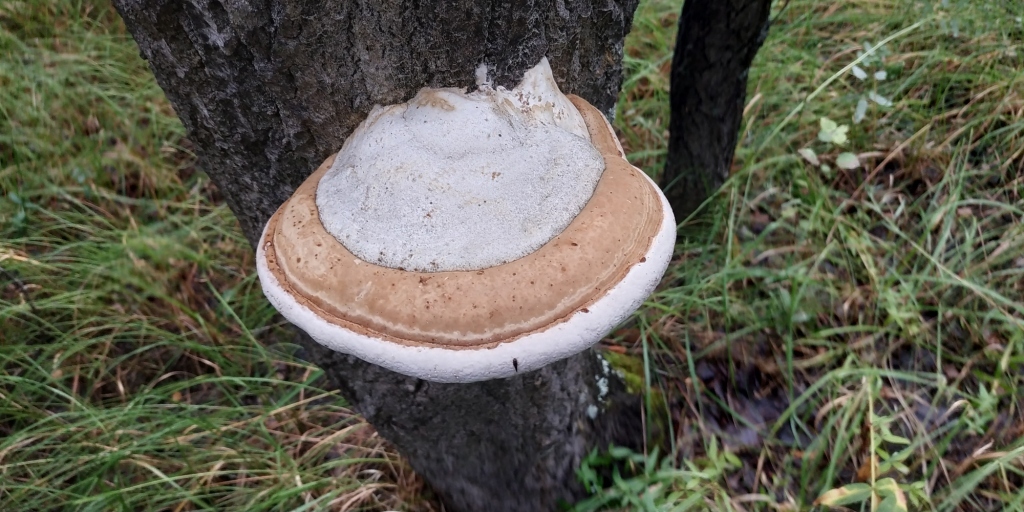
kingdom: Fungi
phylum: Basidiomycota
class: Agaricomycetes
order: Polyporales
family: Polyporaceae
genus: Fomes
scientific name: Fomes fomentarius
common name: Hoof fungus
